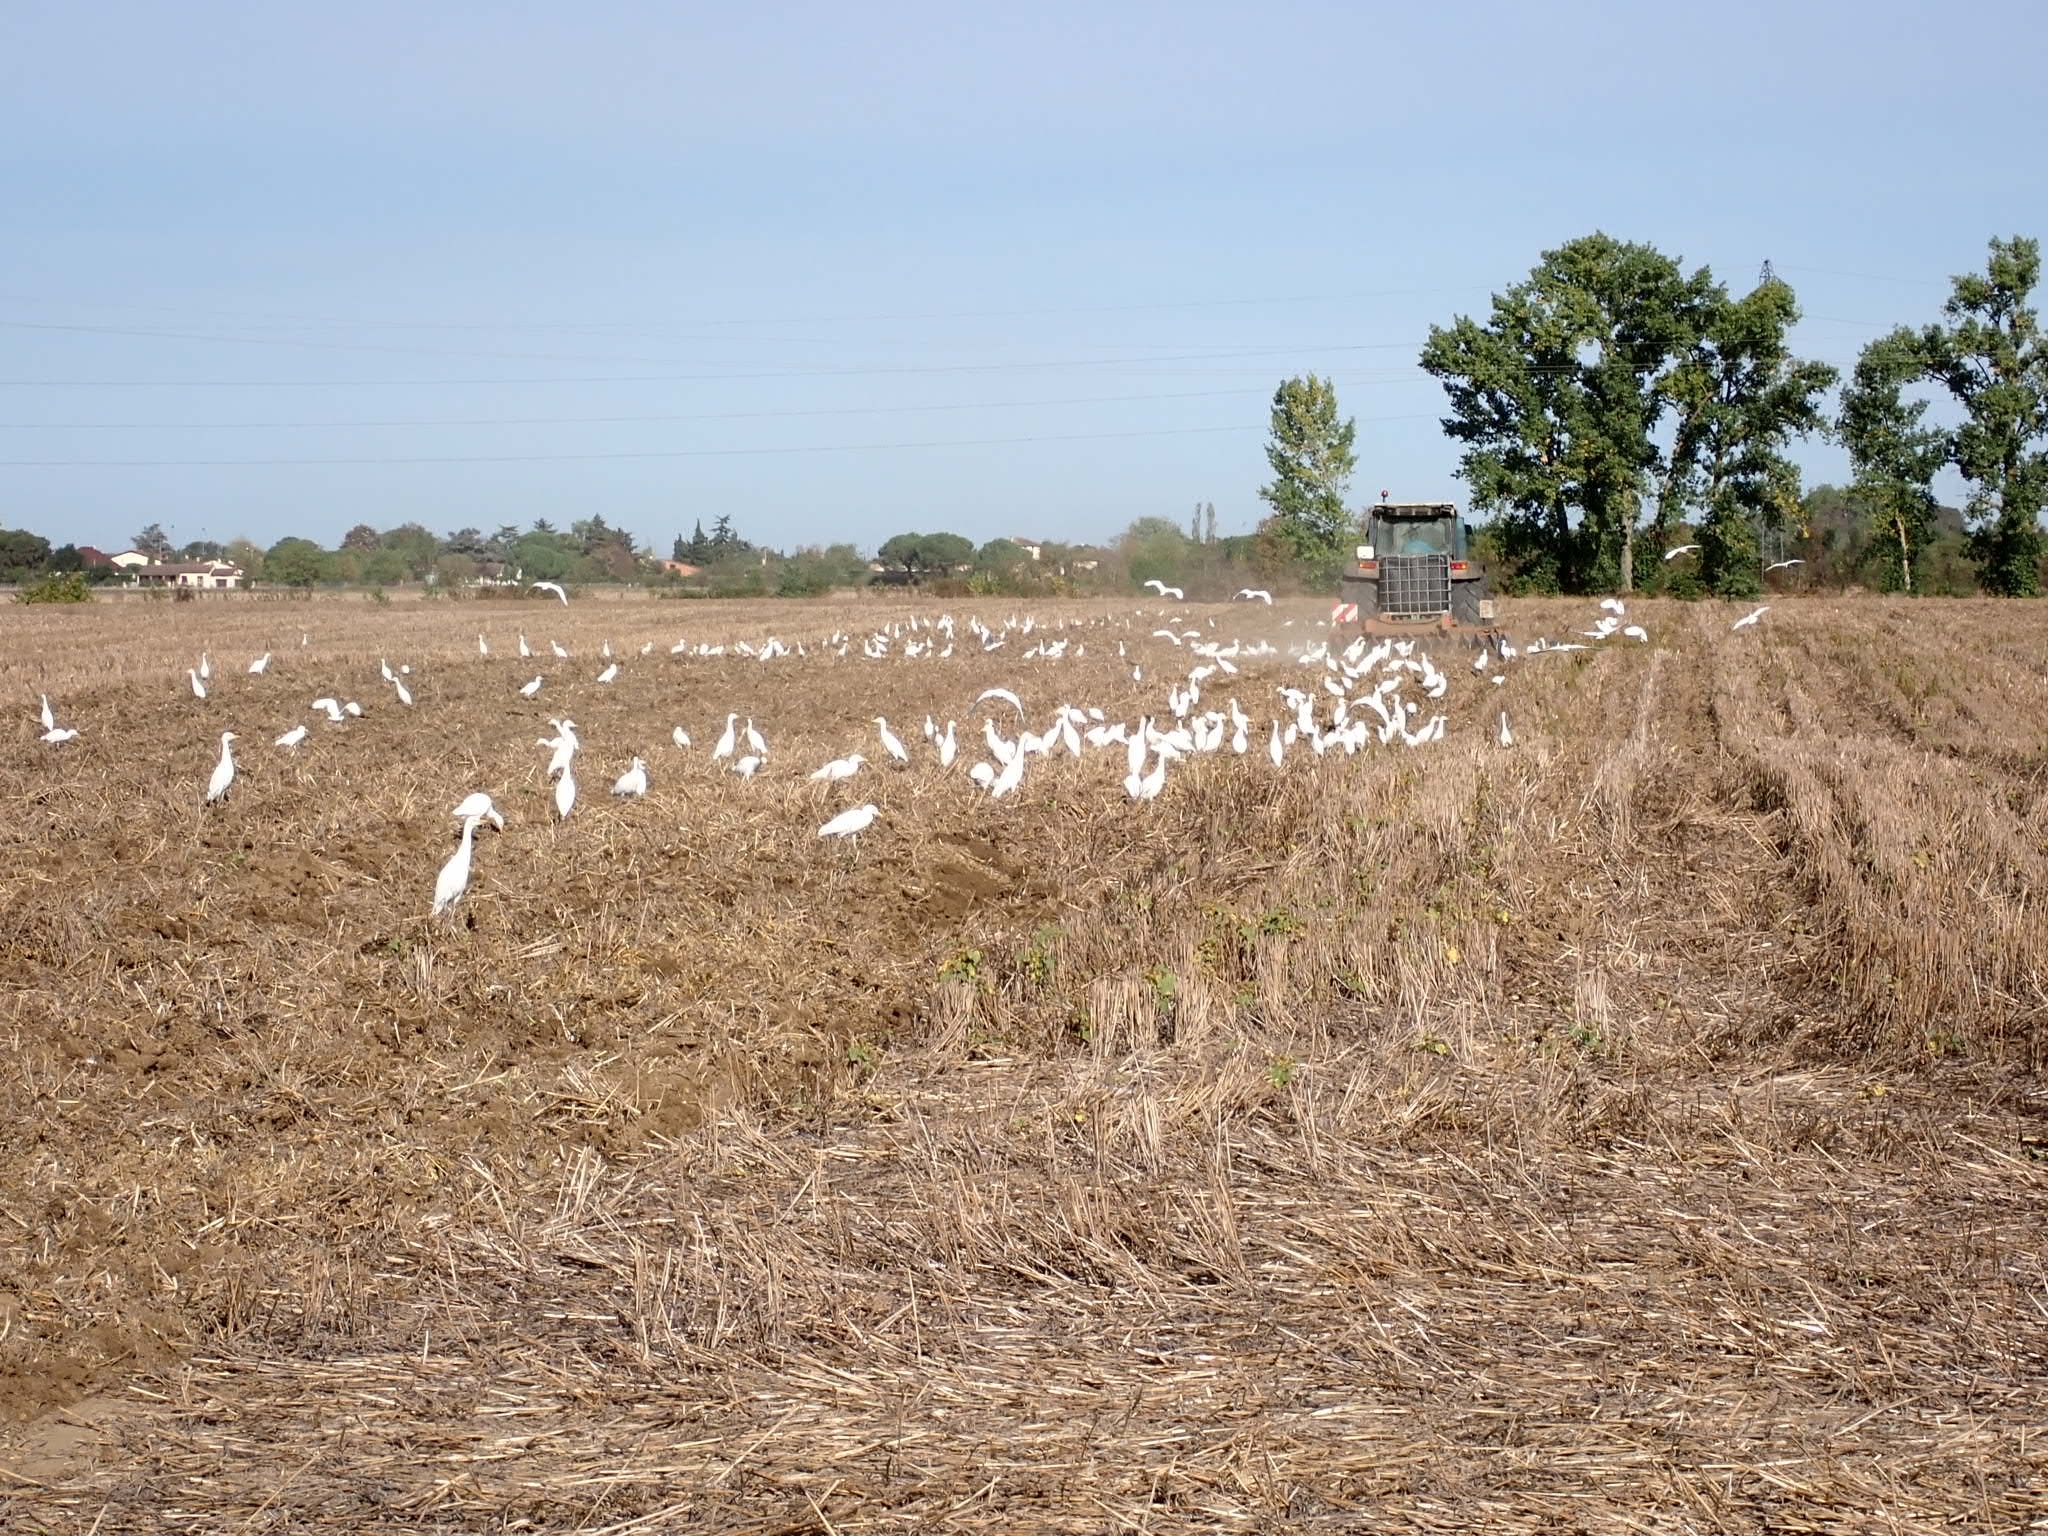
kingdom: Animalia
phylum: Chordata
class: Aves
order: Pelecaniformes
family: Ardeidae
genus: Bubulcus
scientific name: Bubulcus ibis
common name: Cattle egret
